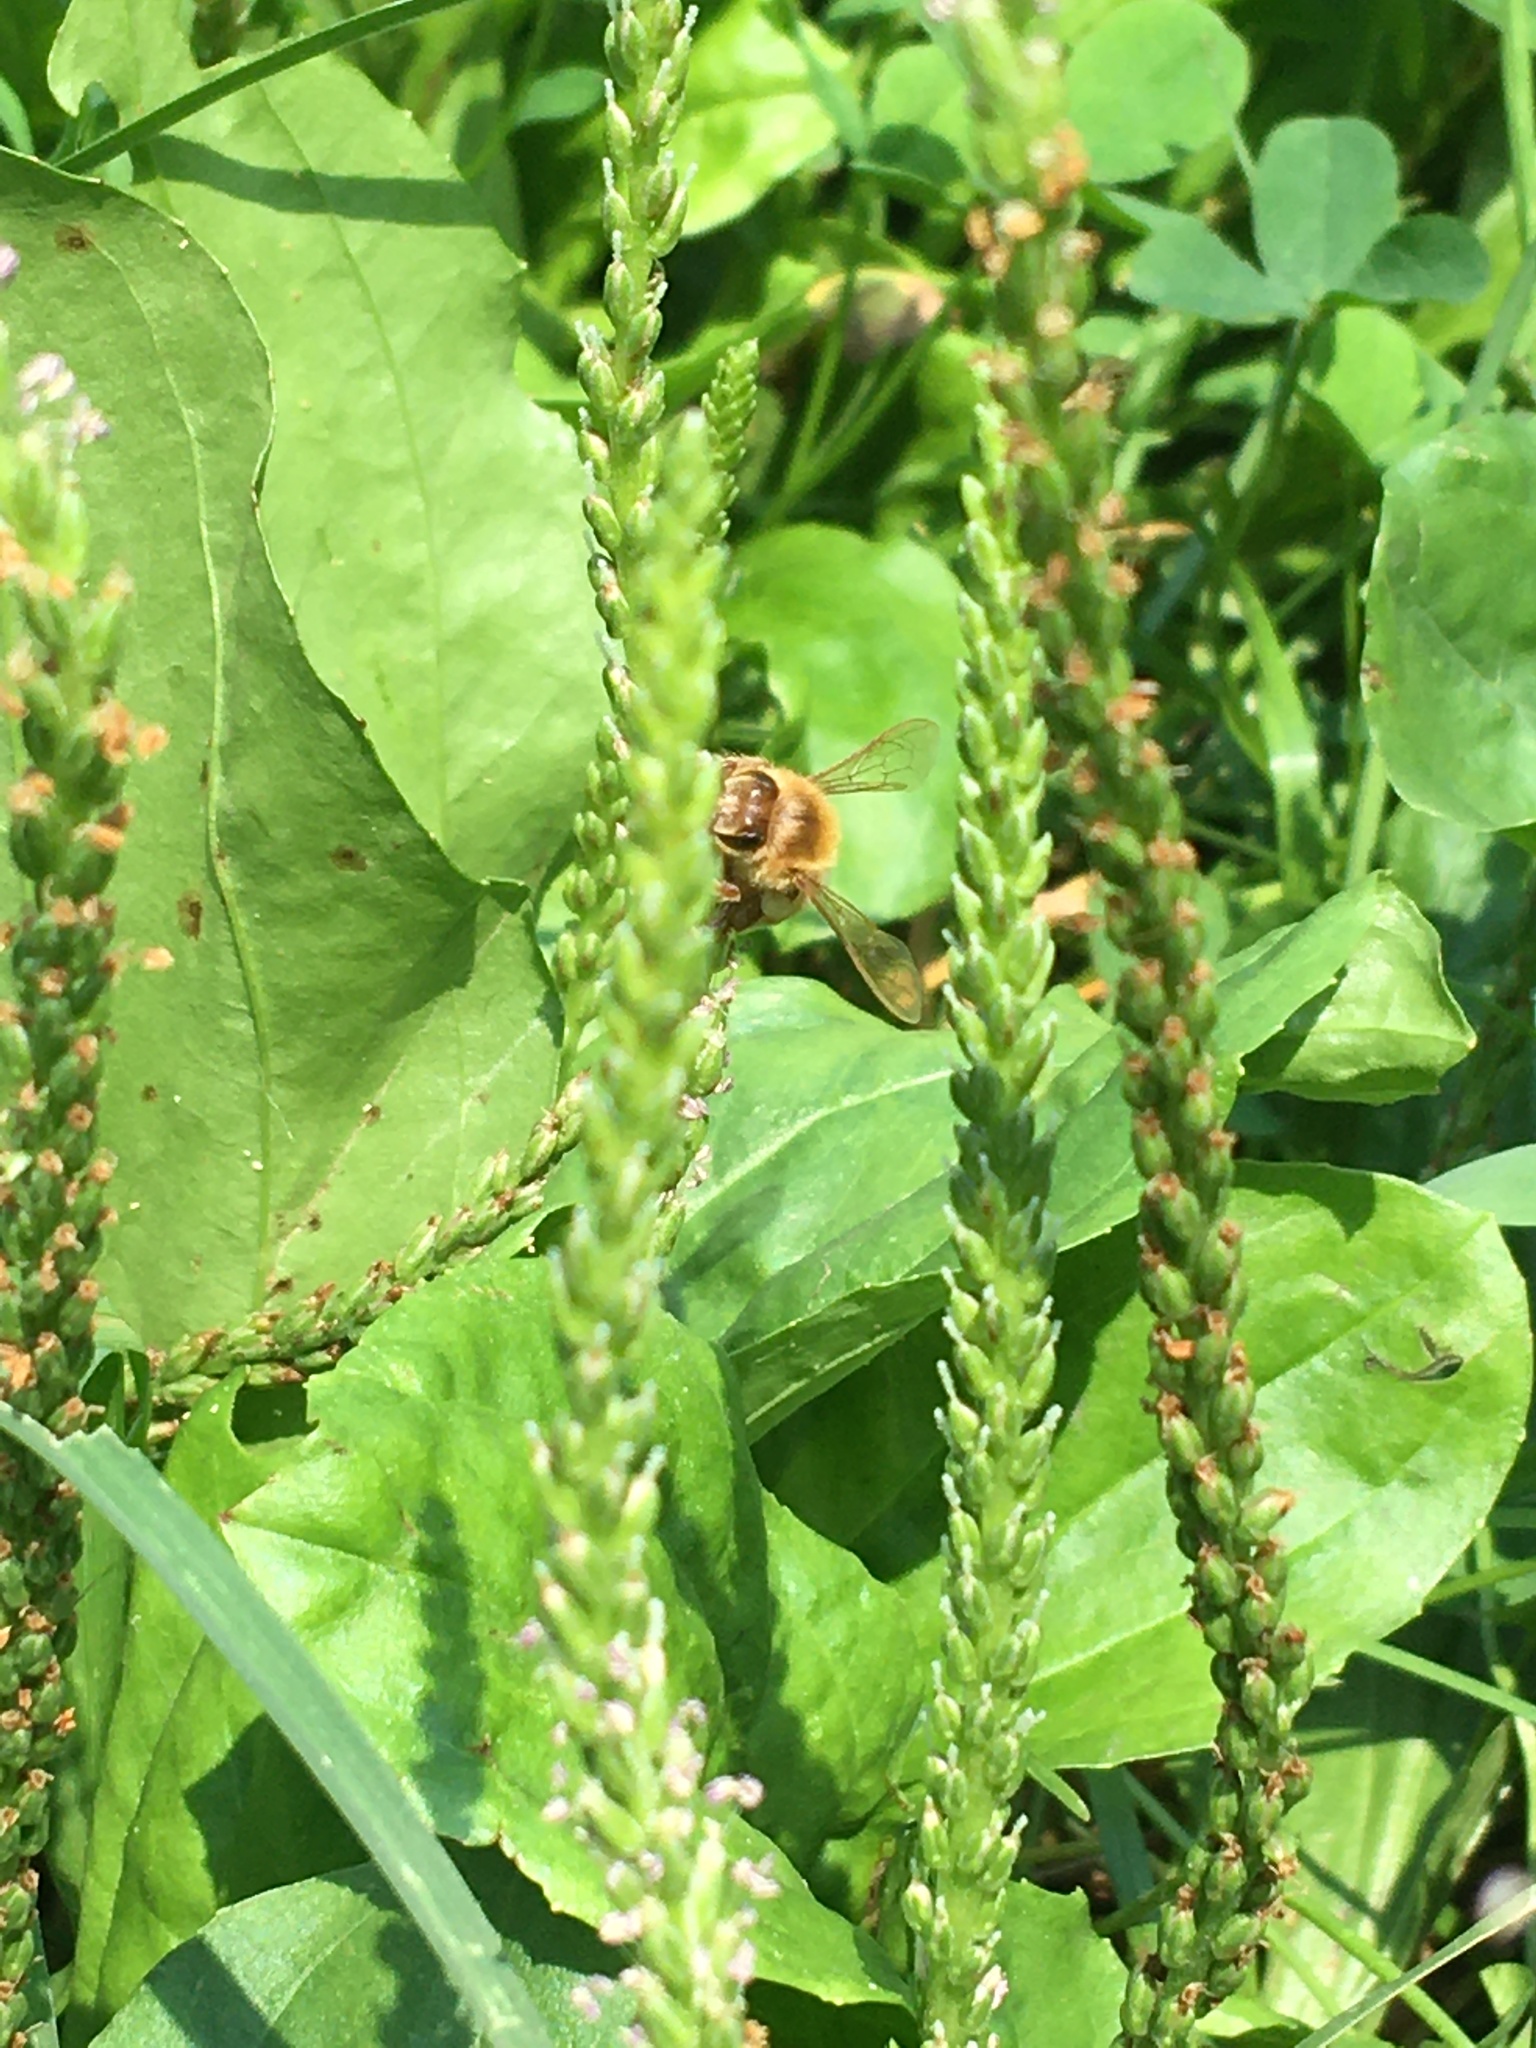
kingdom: Animalia
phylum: Arthropoda
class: Insecta
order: Hymenoptera
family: Apidae
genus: Apis
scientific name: Apis mellifera
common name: Honey bee
